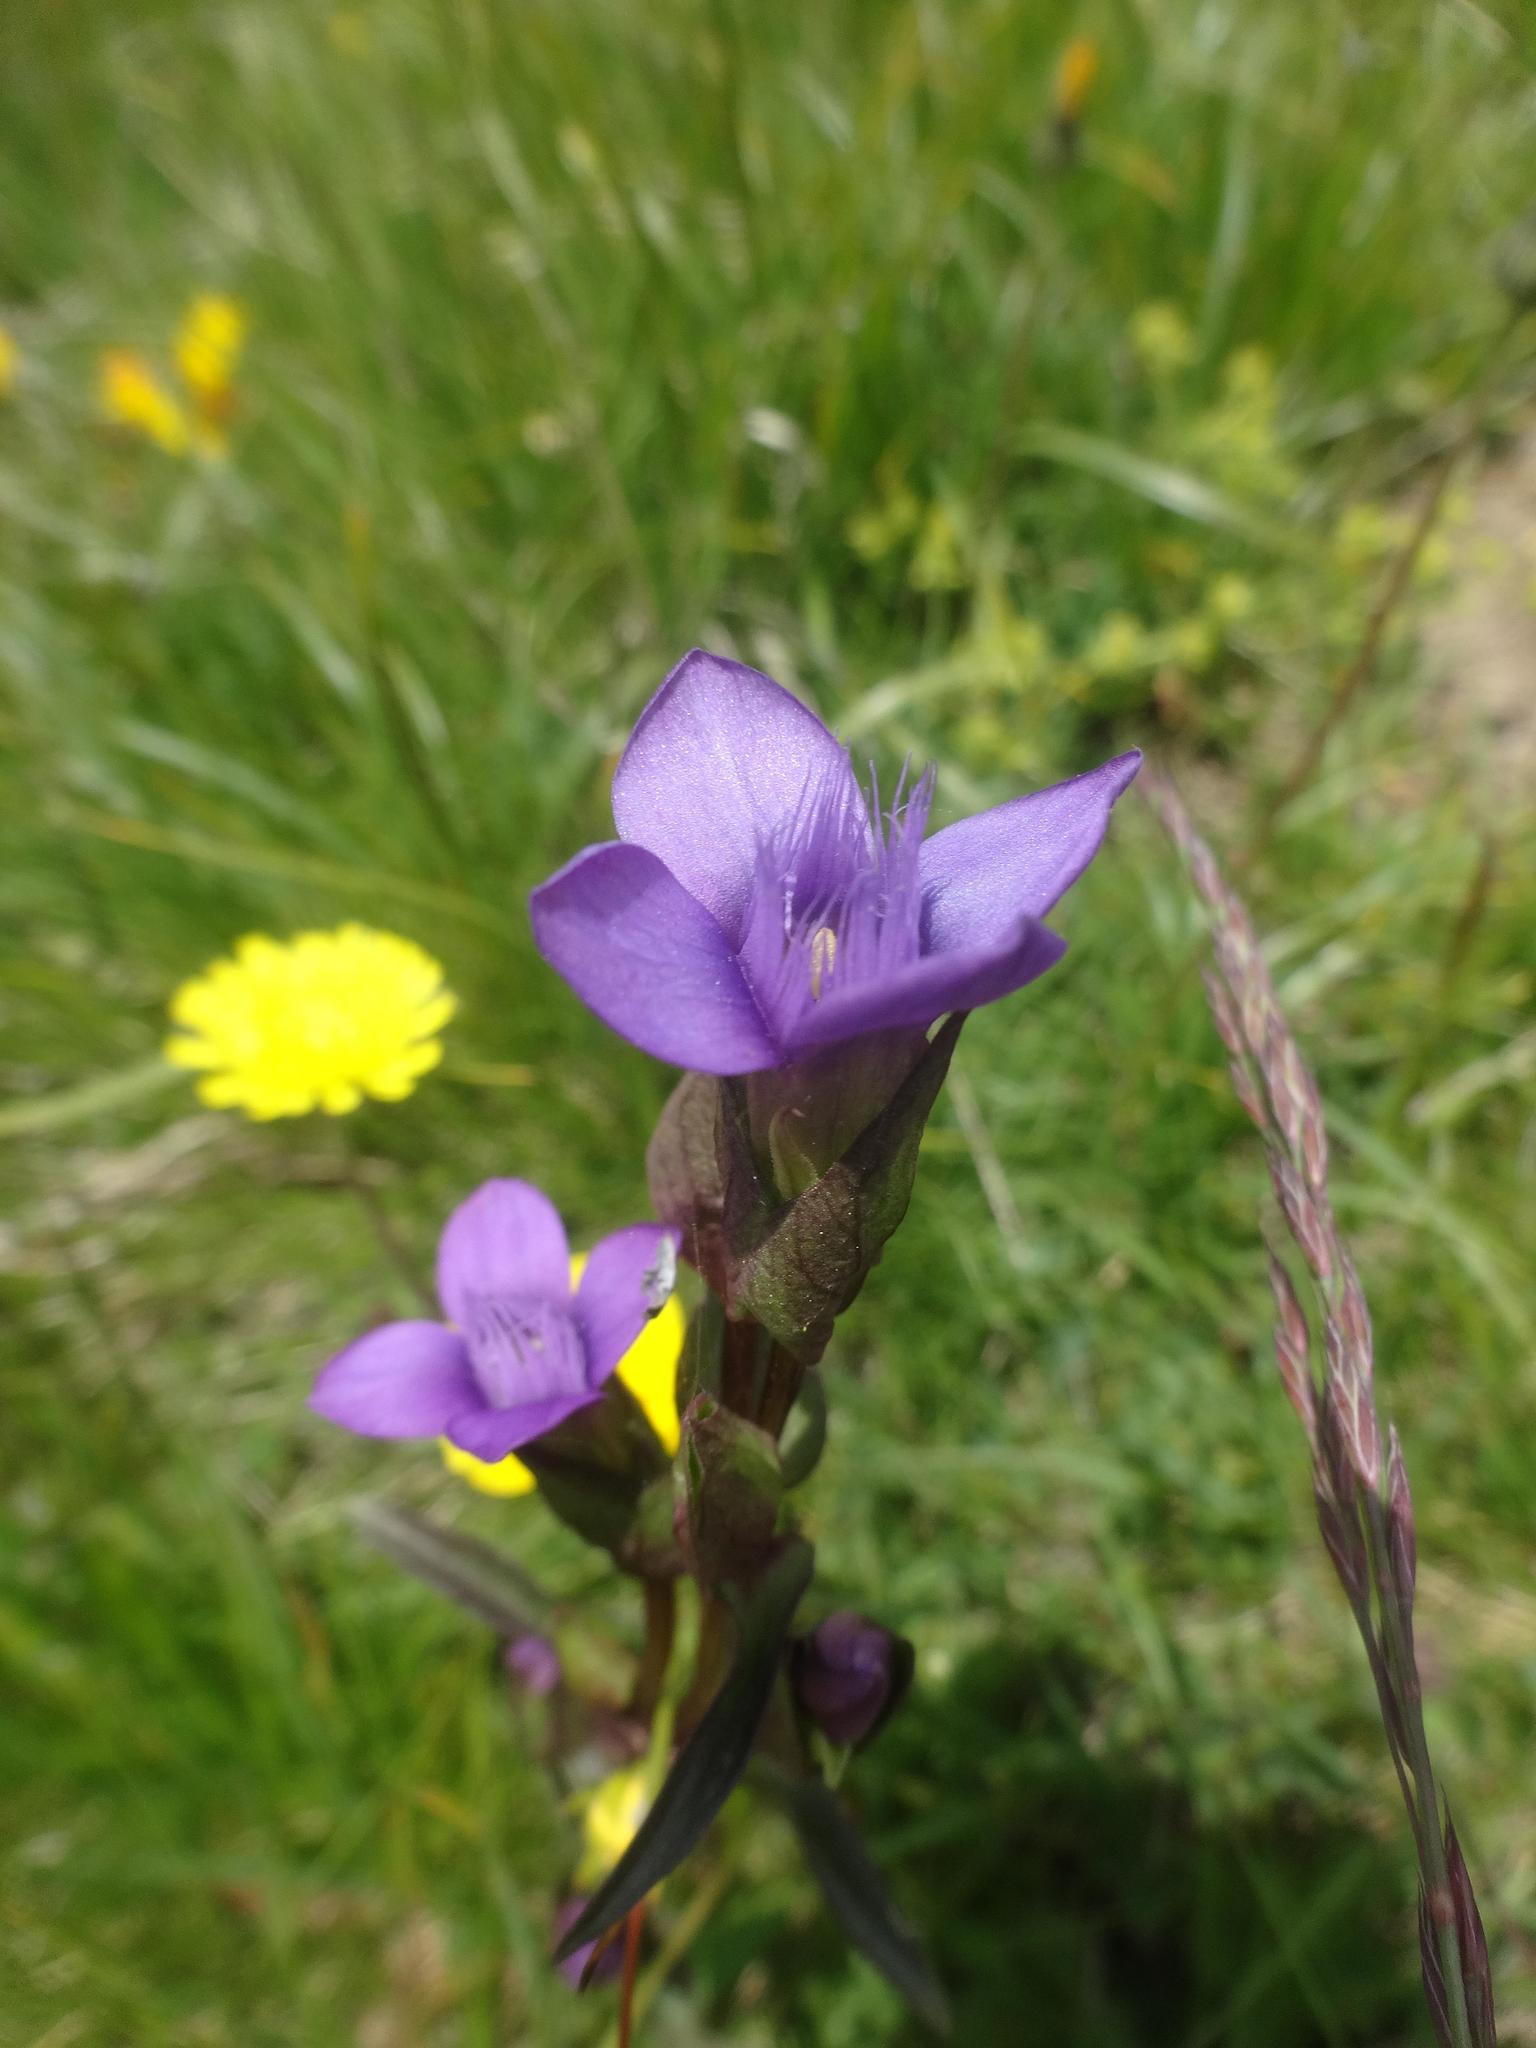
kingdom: Plantae
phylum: Tracheophyta
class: Magnoliopsida
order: Gentianales
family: Gentianaceae
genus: Gentianella
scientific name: Gentianella campestris
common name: Field gentian
